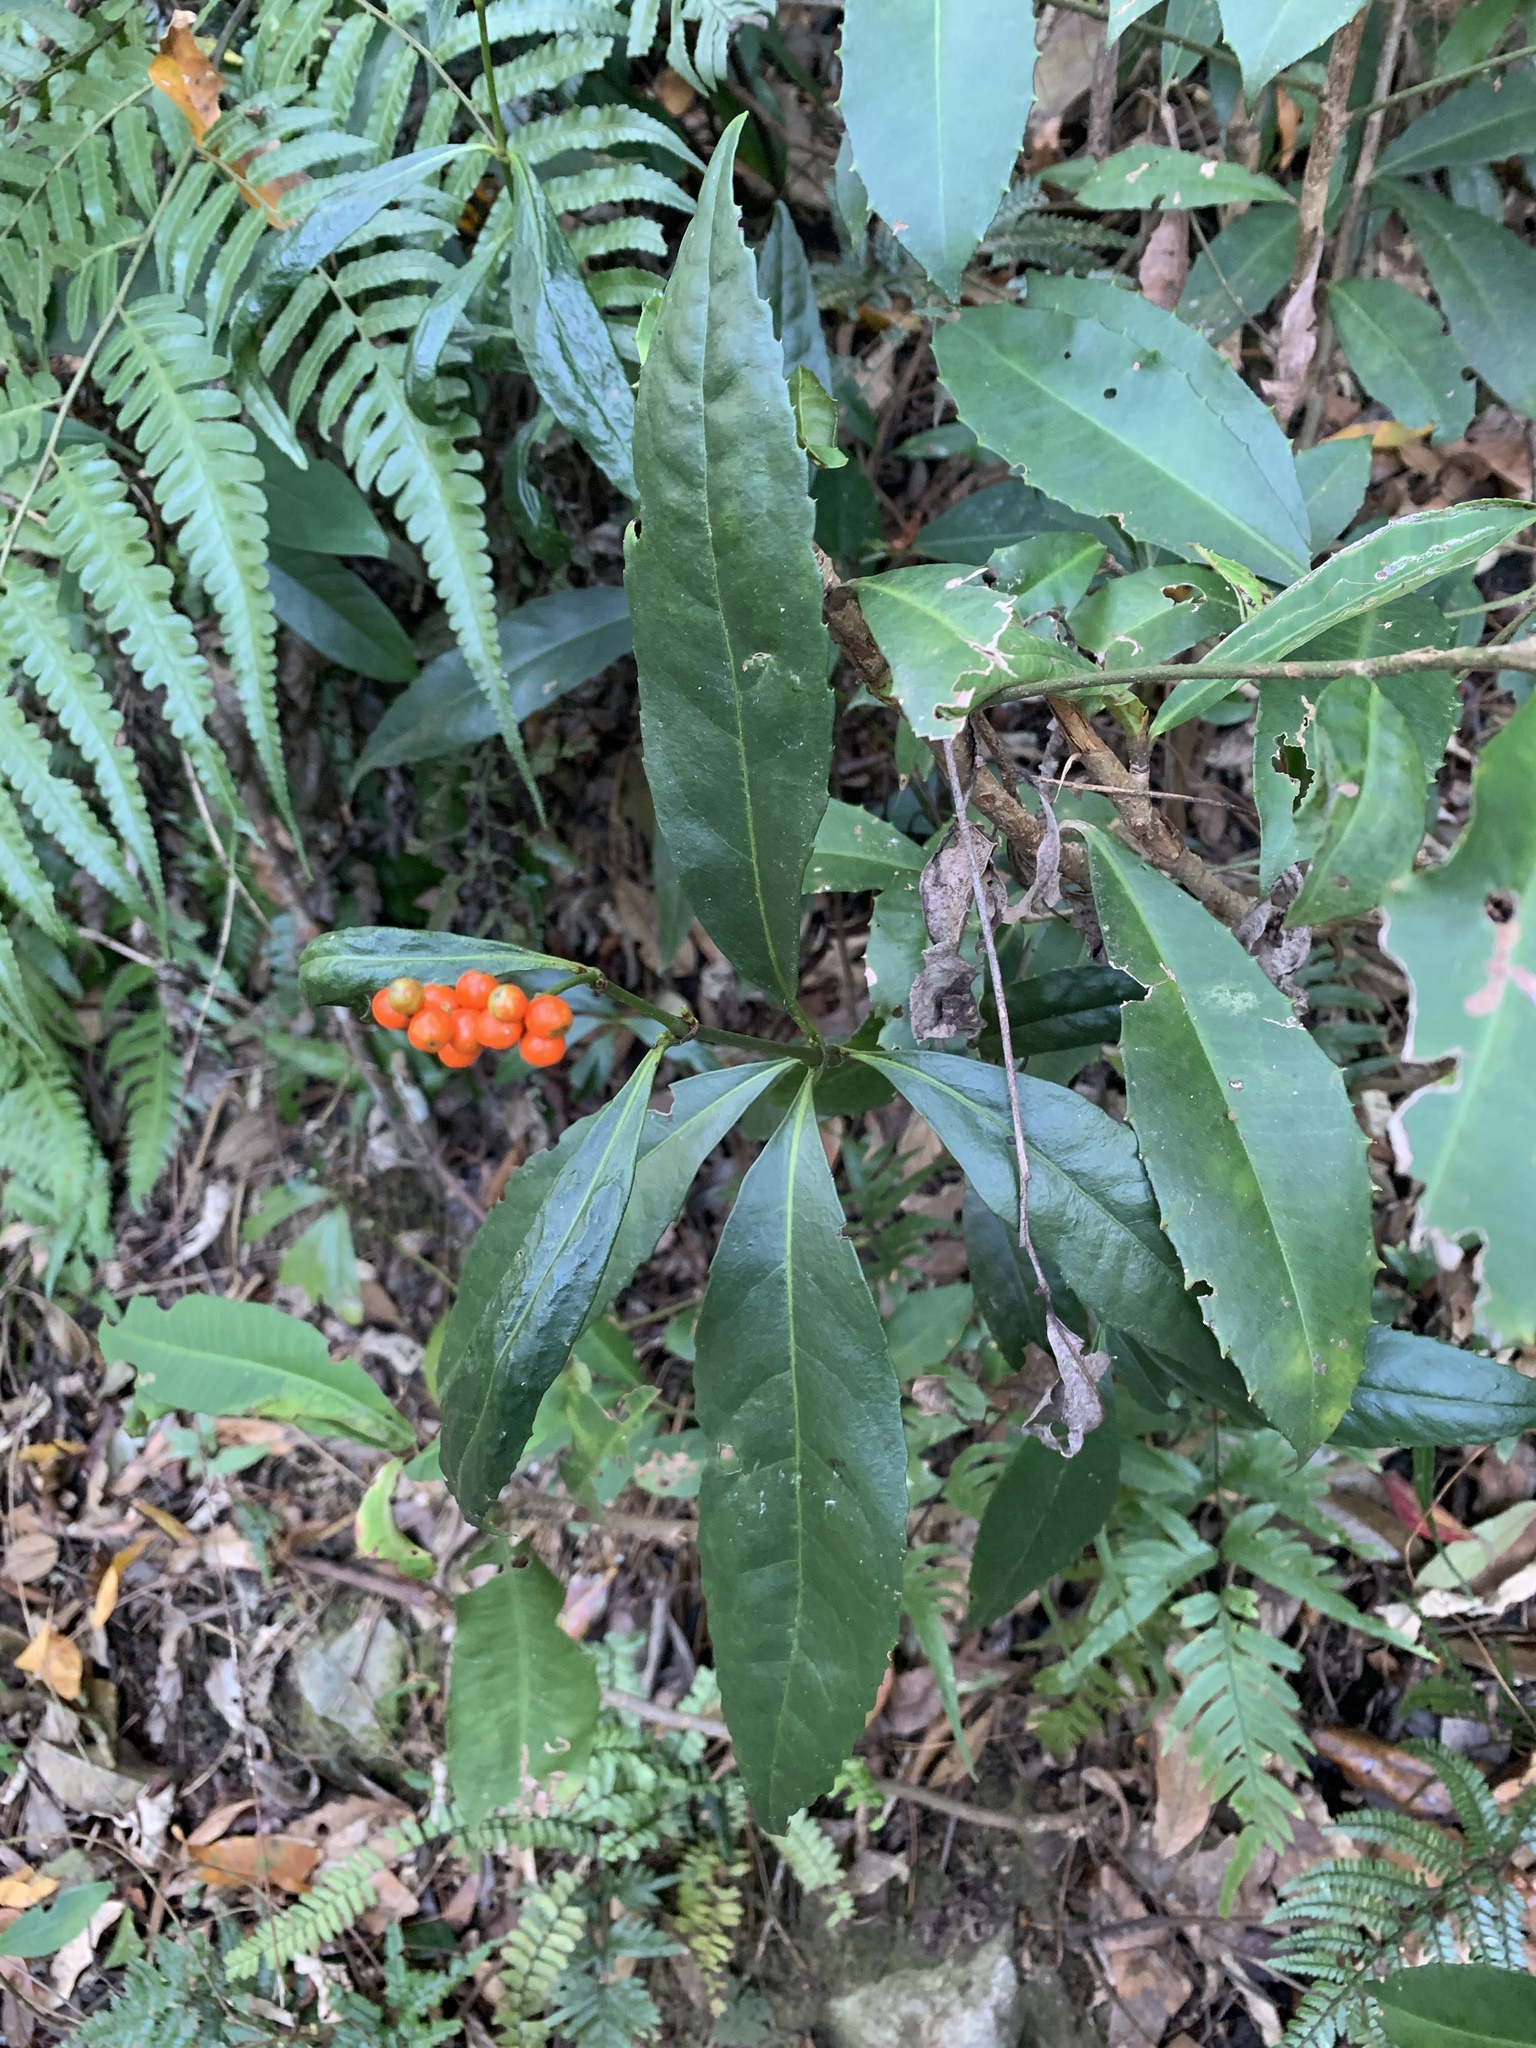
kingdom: Plantae
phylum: Tracheophyta
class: Magnoliopsida
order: Chloranthales
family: Chloranthaceae
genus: Sarcandra
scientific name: Sarcandra glabra
